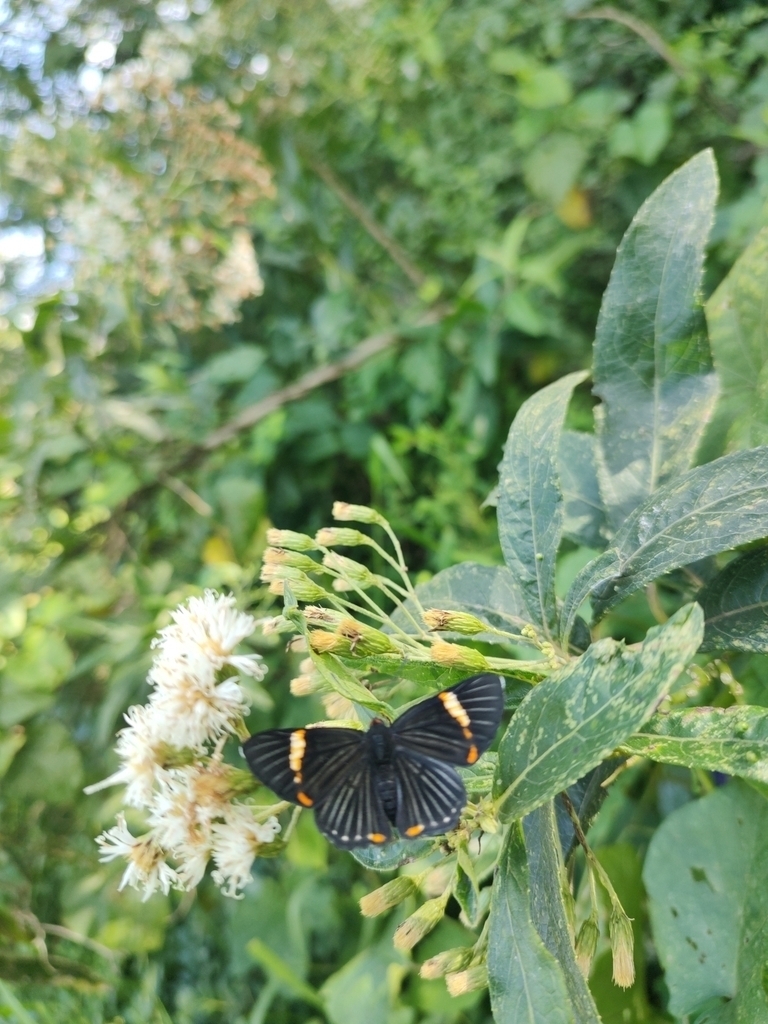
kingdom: Plantae
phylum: Tracheophyta
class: Magnoliopsida
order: Asterales
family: Asteraceae
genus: Vernonanthura
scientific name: Vernonanthura tweedieana
